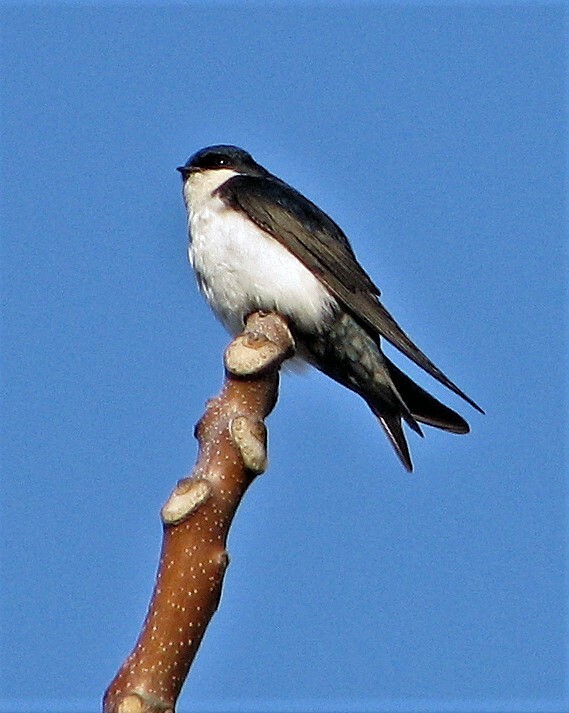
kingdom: Animalia
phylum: Chordata
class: Aves
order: Passeriformes
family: Hirundinidae
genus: Notiochelidon
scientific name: Notiochelidon cyanoleuca
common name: Blue-and-white swallow
